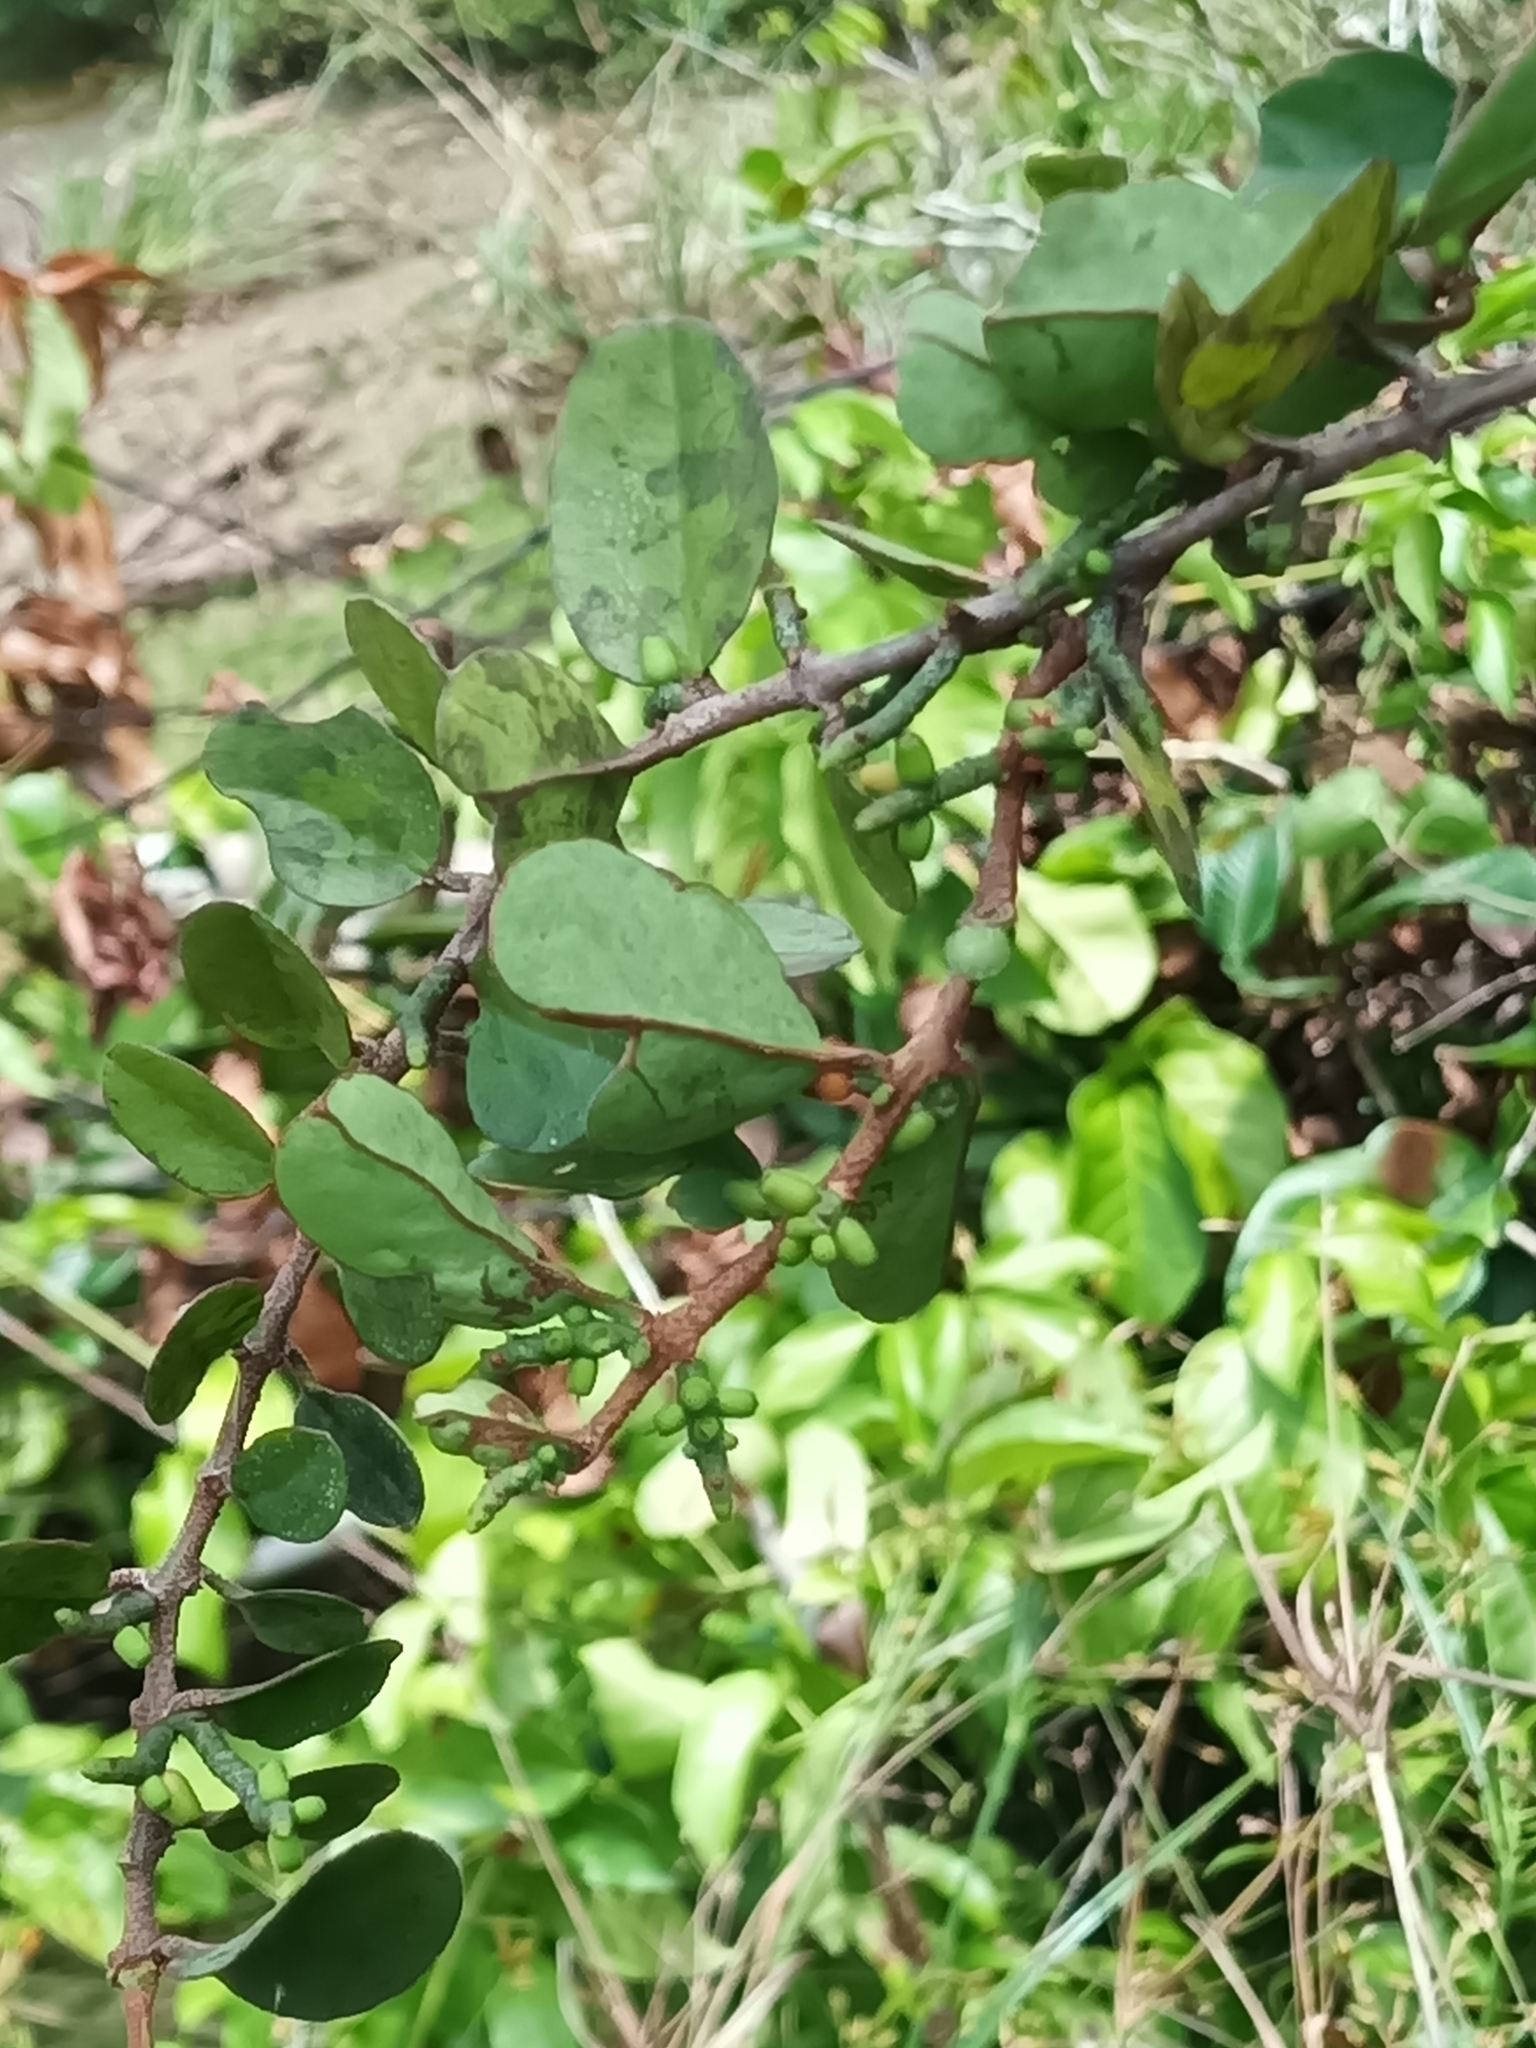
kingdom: Plantae
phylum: Tracheophyta
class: Magnoliopsida
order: Santalales
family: Loranthaceae
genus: Oryctanthus
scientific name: Oryctanthus florulentus
